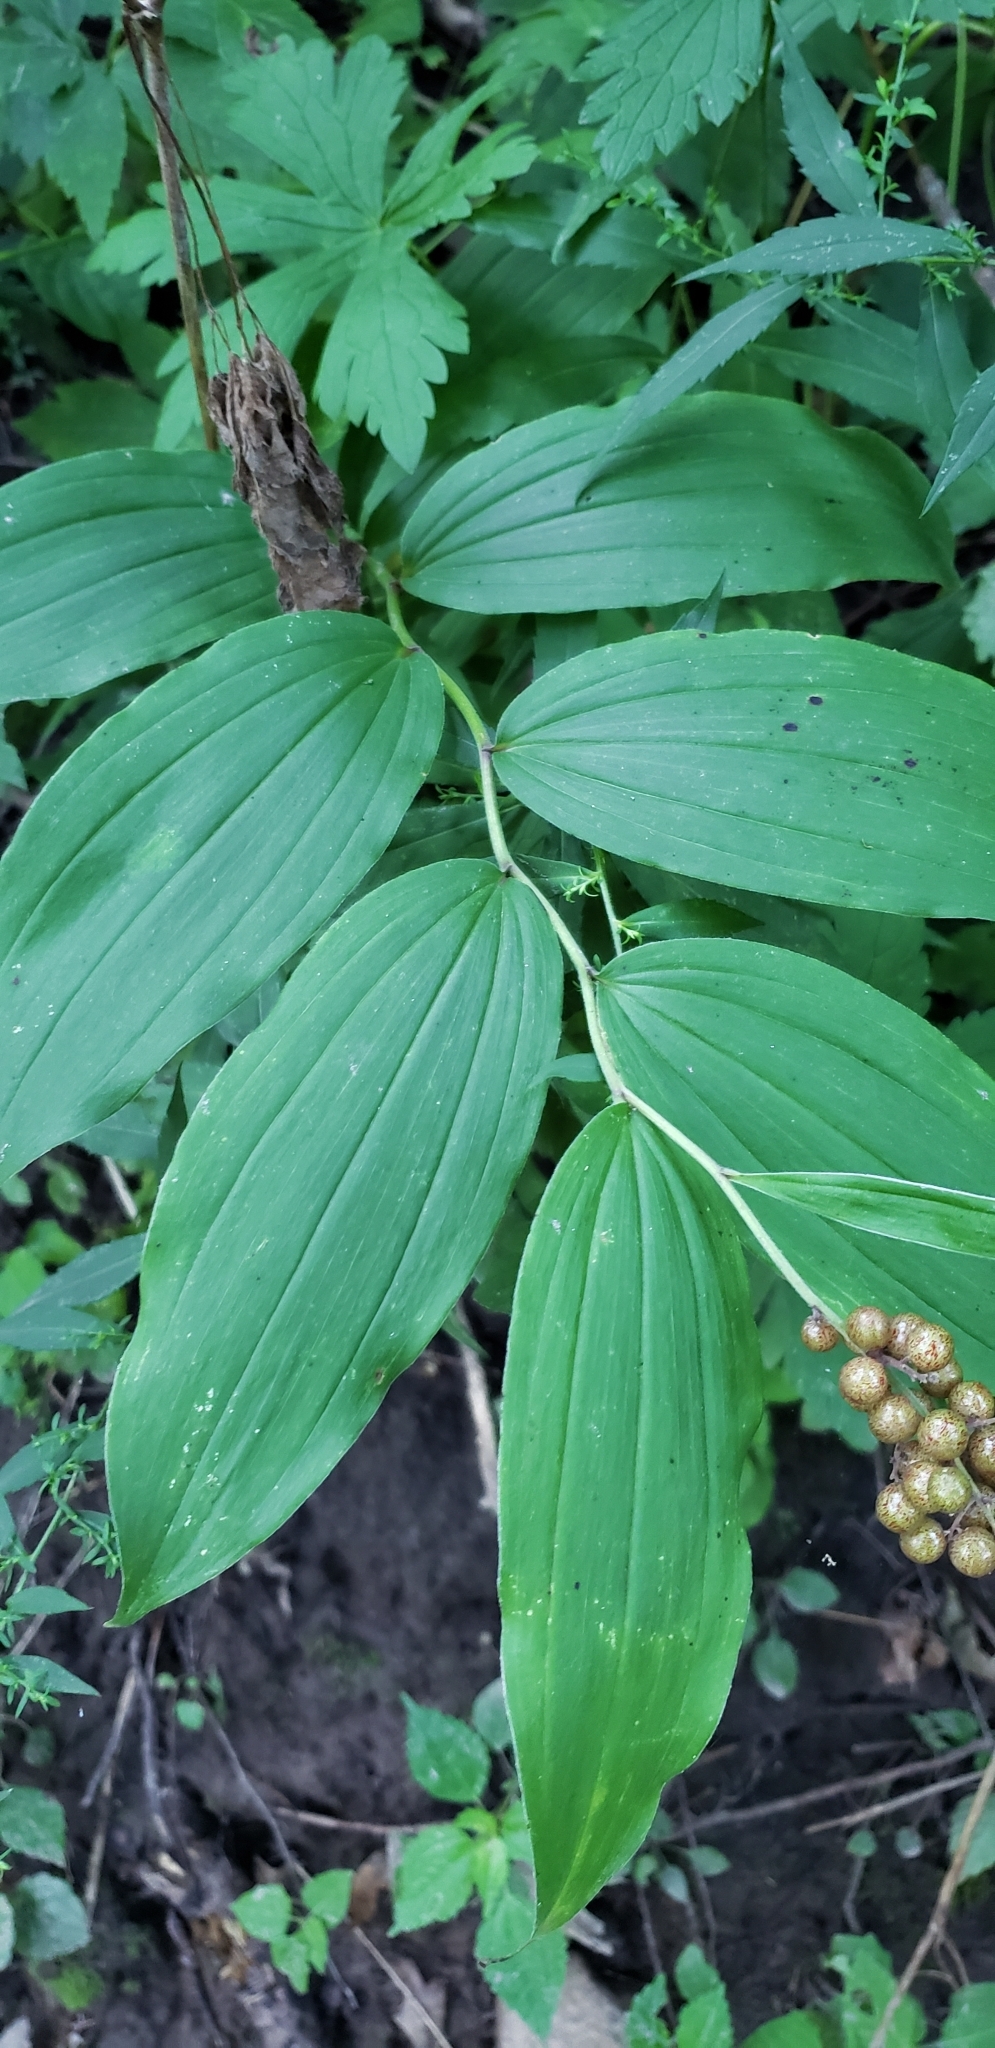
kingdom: Plantae
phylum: Tracheophyta
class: Liliopsida
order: Asparagales
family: Asparagaceae
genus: Maianthemum
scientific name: Maianthemum racemosum
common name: False spikenard
